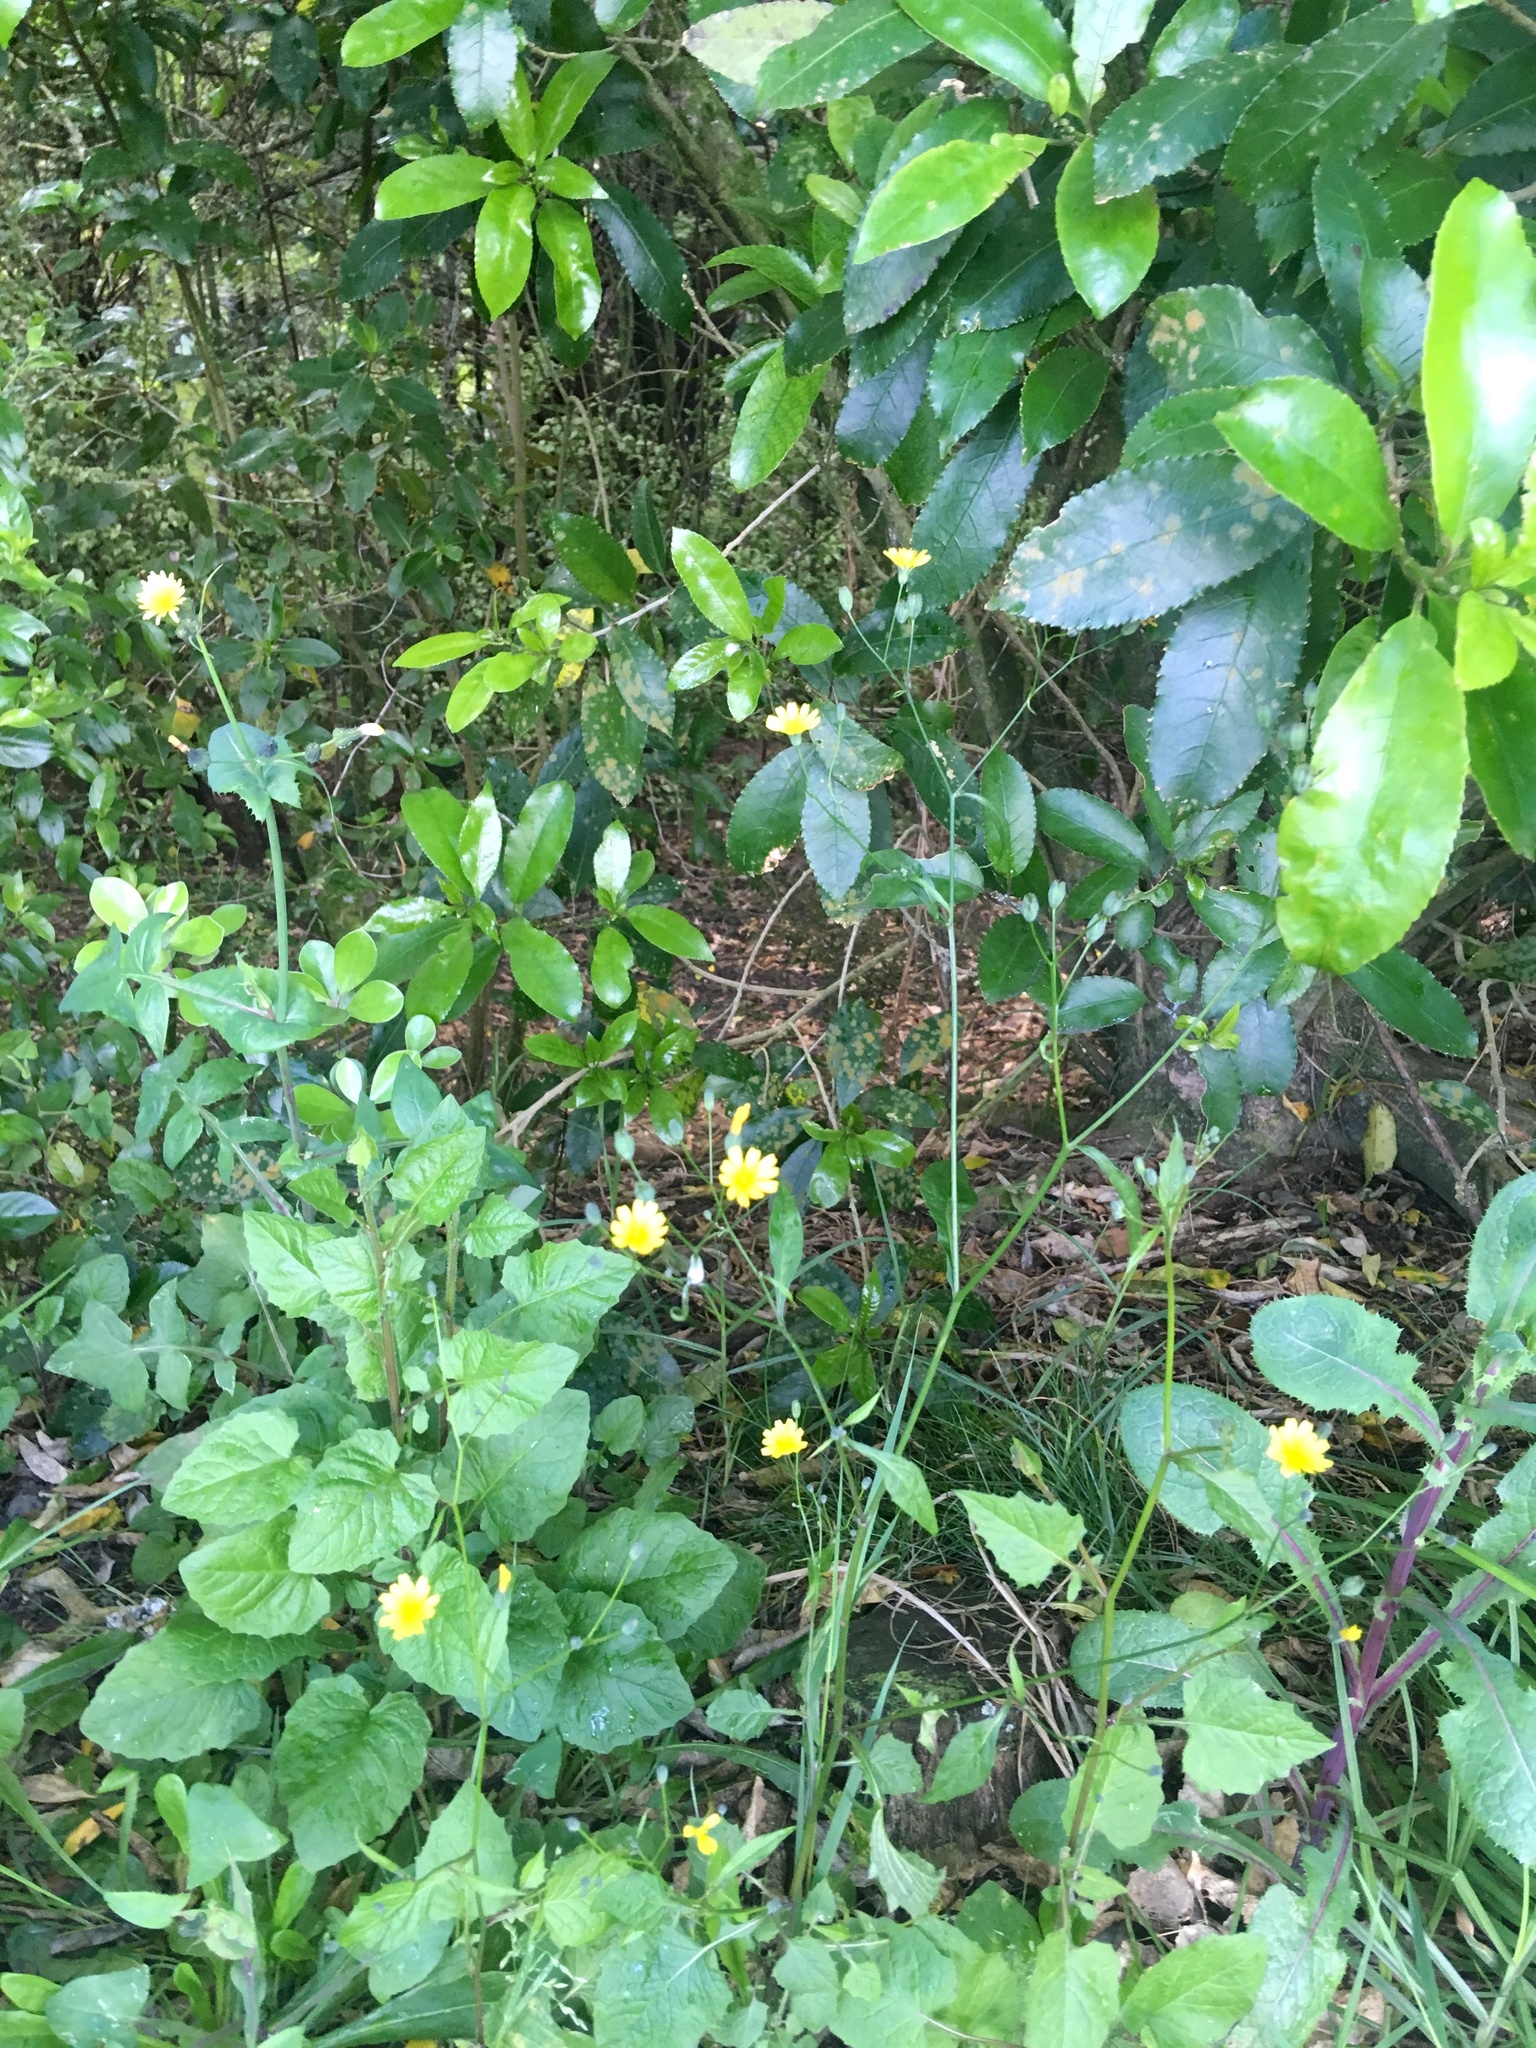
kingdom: Plantae
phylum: Tracheophyta
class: Magnoliopsida
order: Asterales
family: Asteraceae
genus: Lapsana
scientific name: Lapsana communis
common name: Nipplewort
